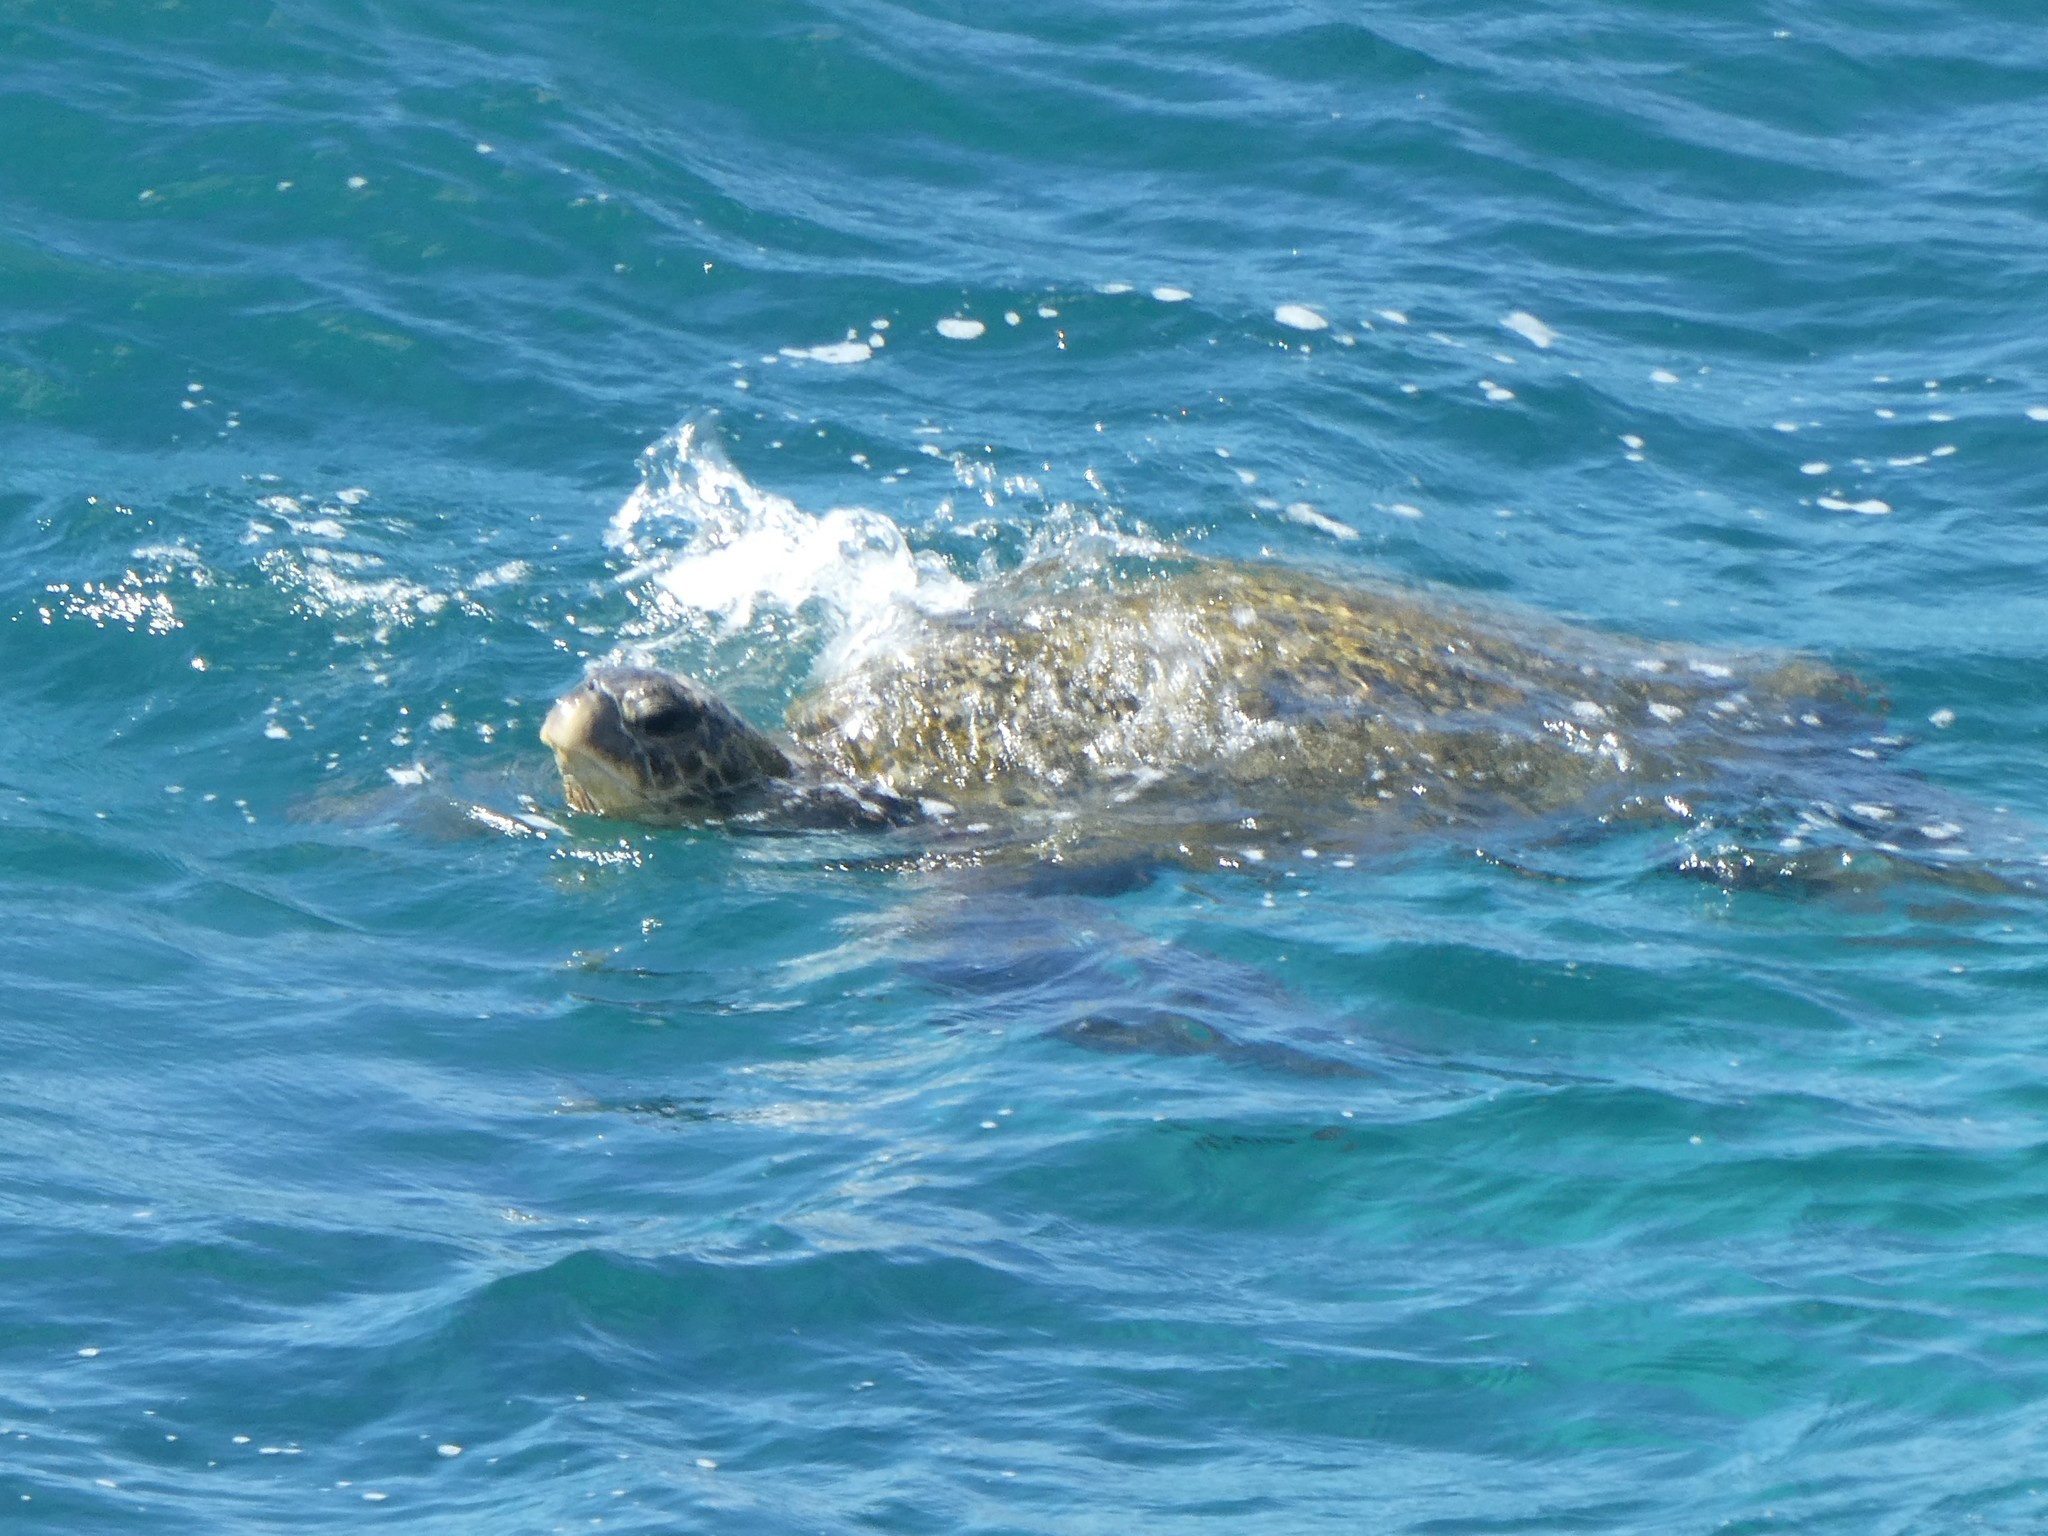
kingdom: Animalia
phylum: Chordata
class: Testudines
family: Cheloniidae
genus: Chelonia
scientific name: Chelonia mydas
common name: Green turtle
